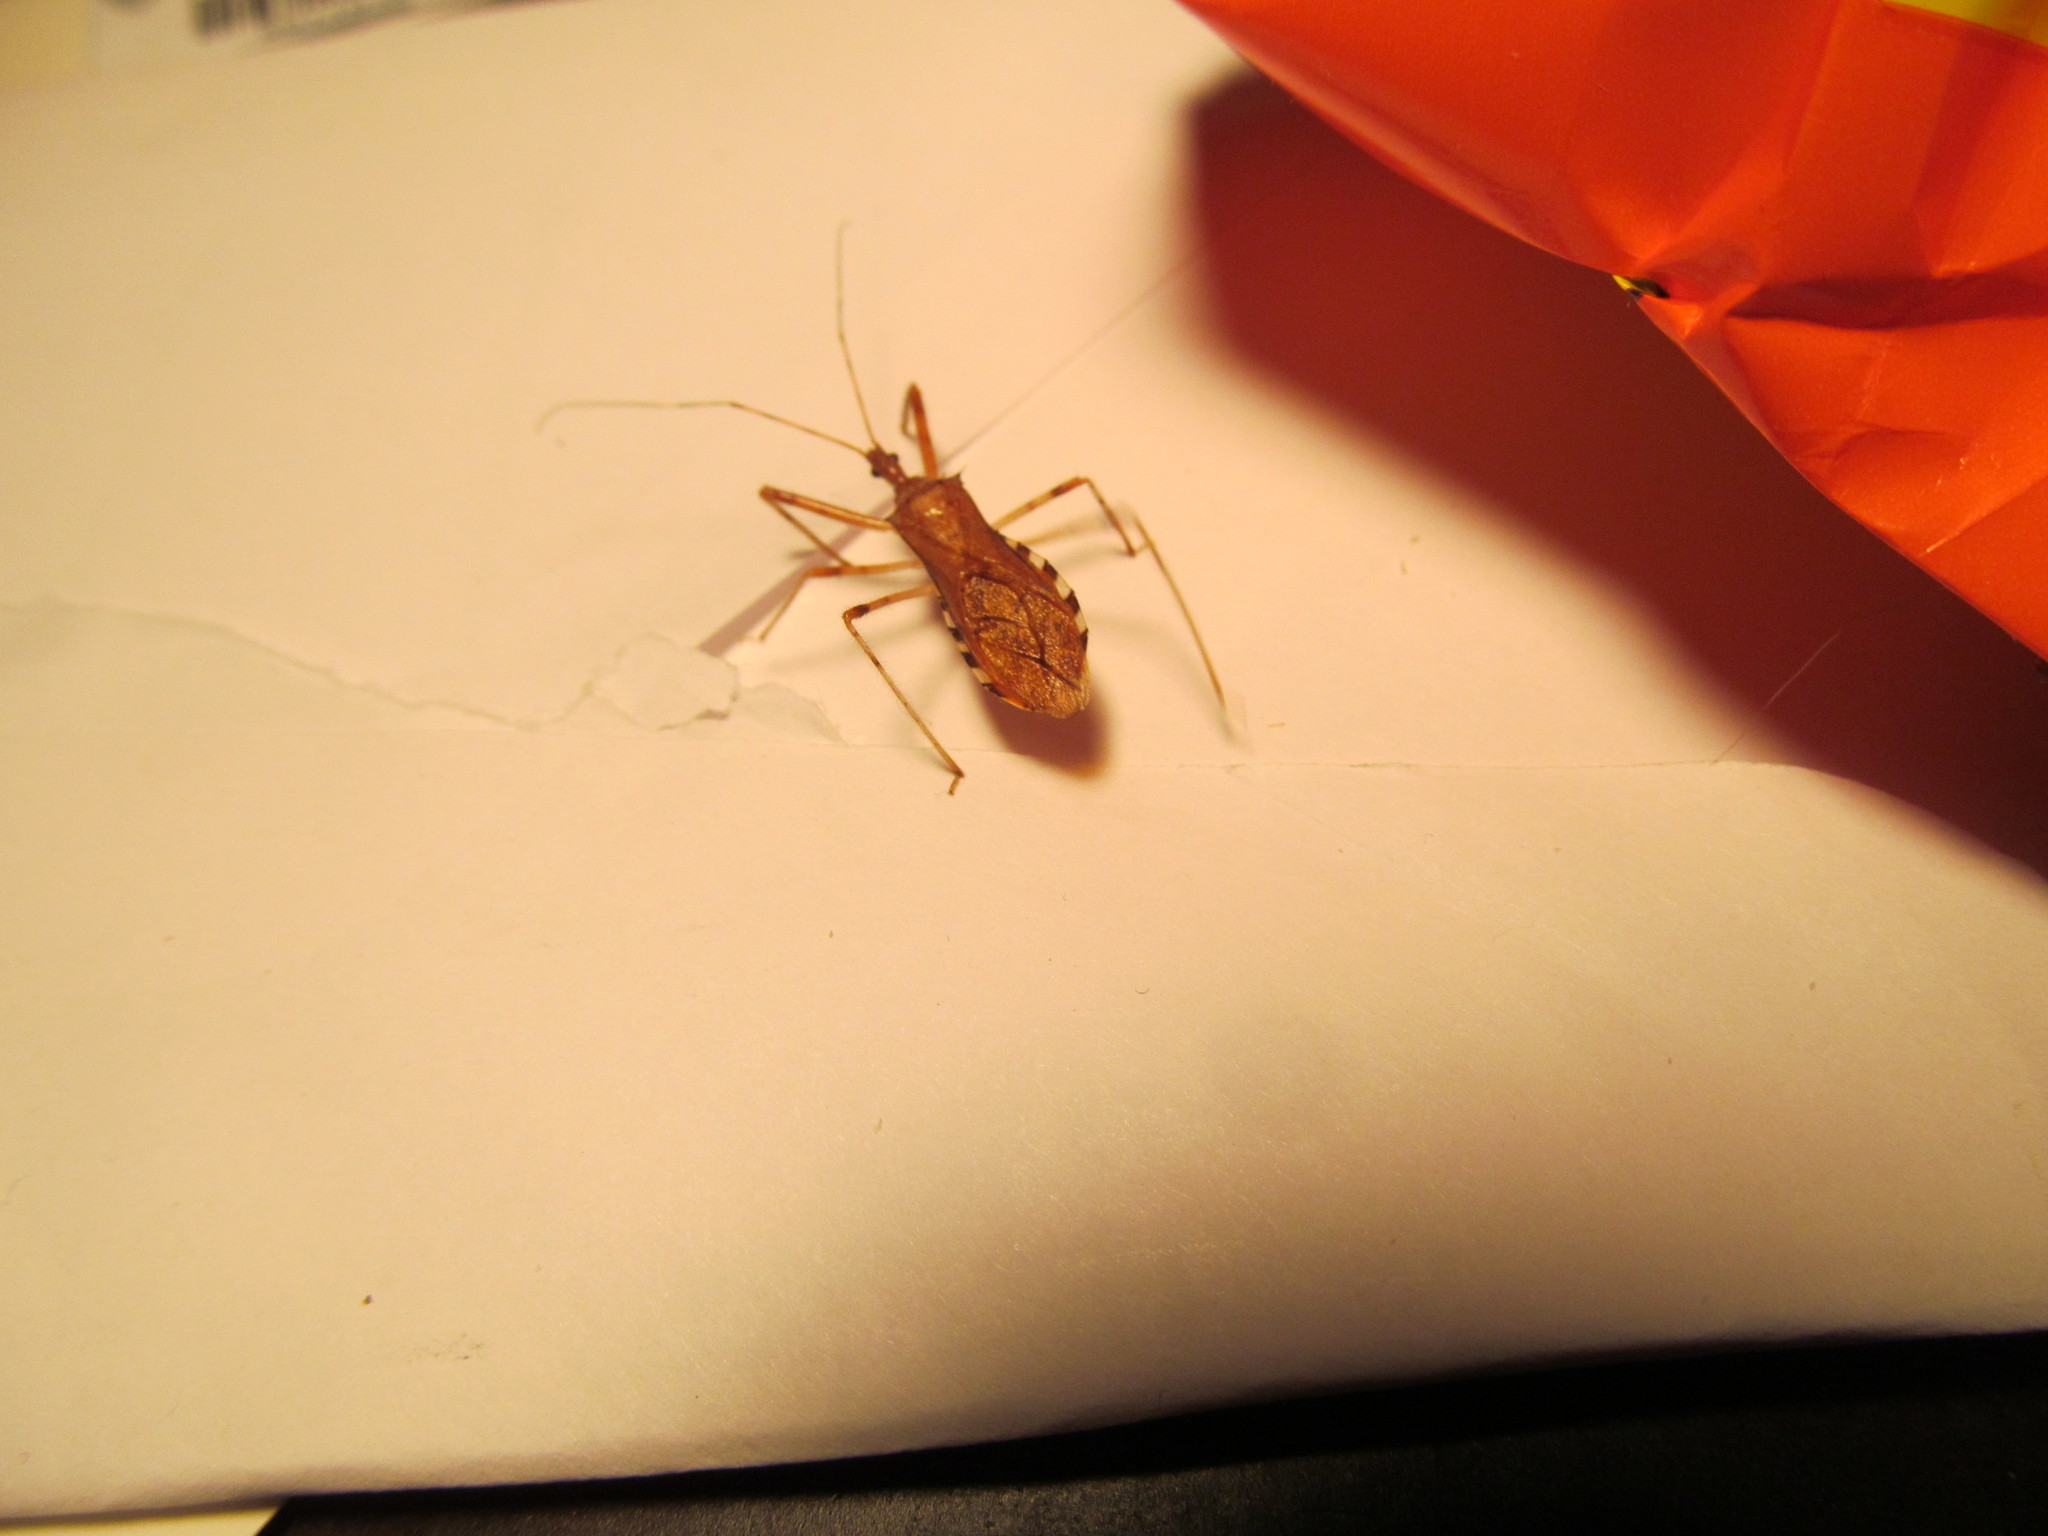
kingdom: Animalia
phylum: Arthropoda
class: Insecta
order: Hemiptera
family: Reduviidae
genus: Rocconota
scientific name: Rocconota annulicornis
